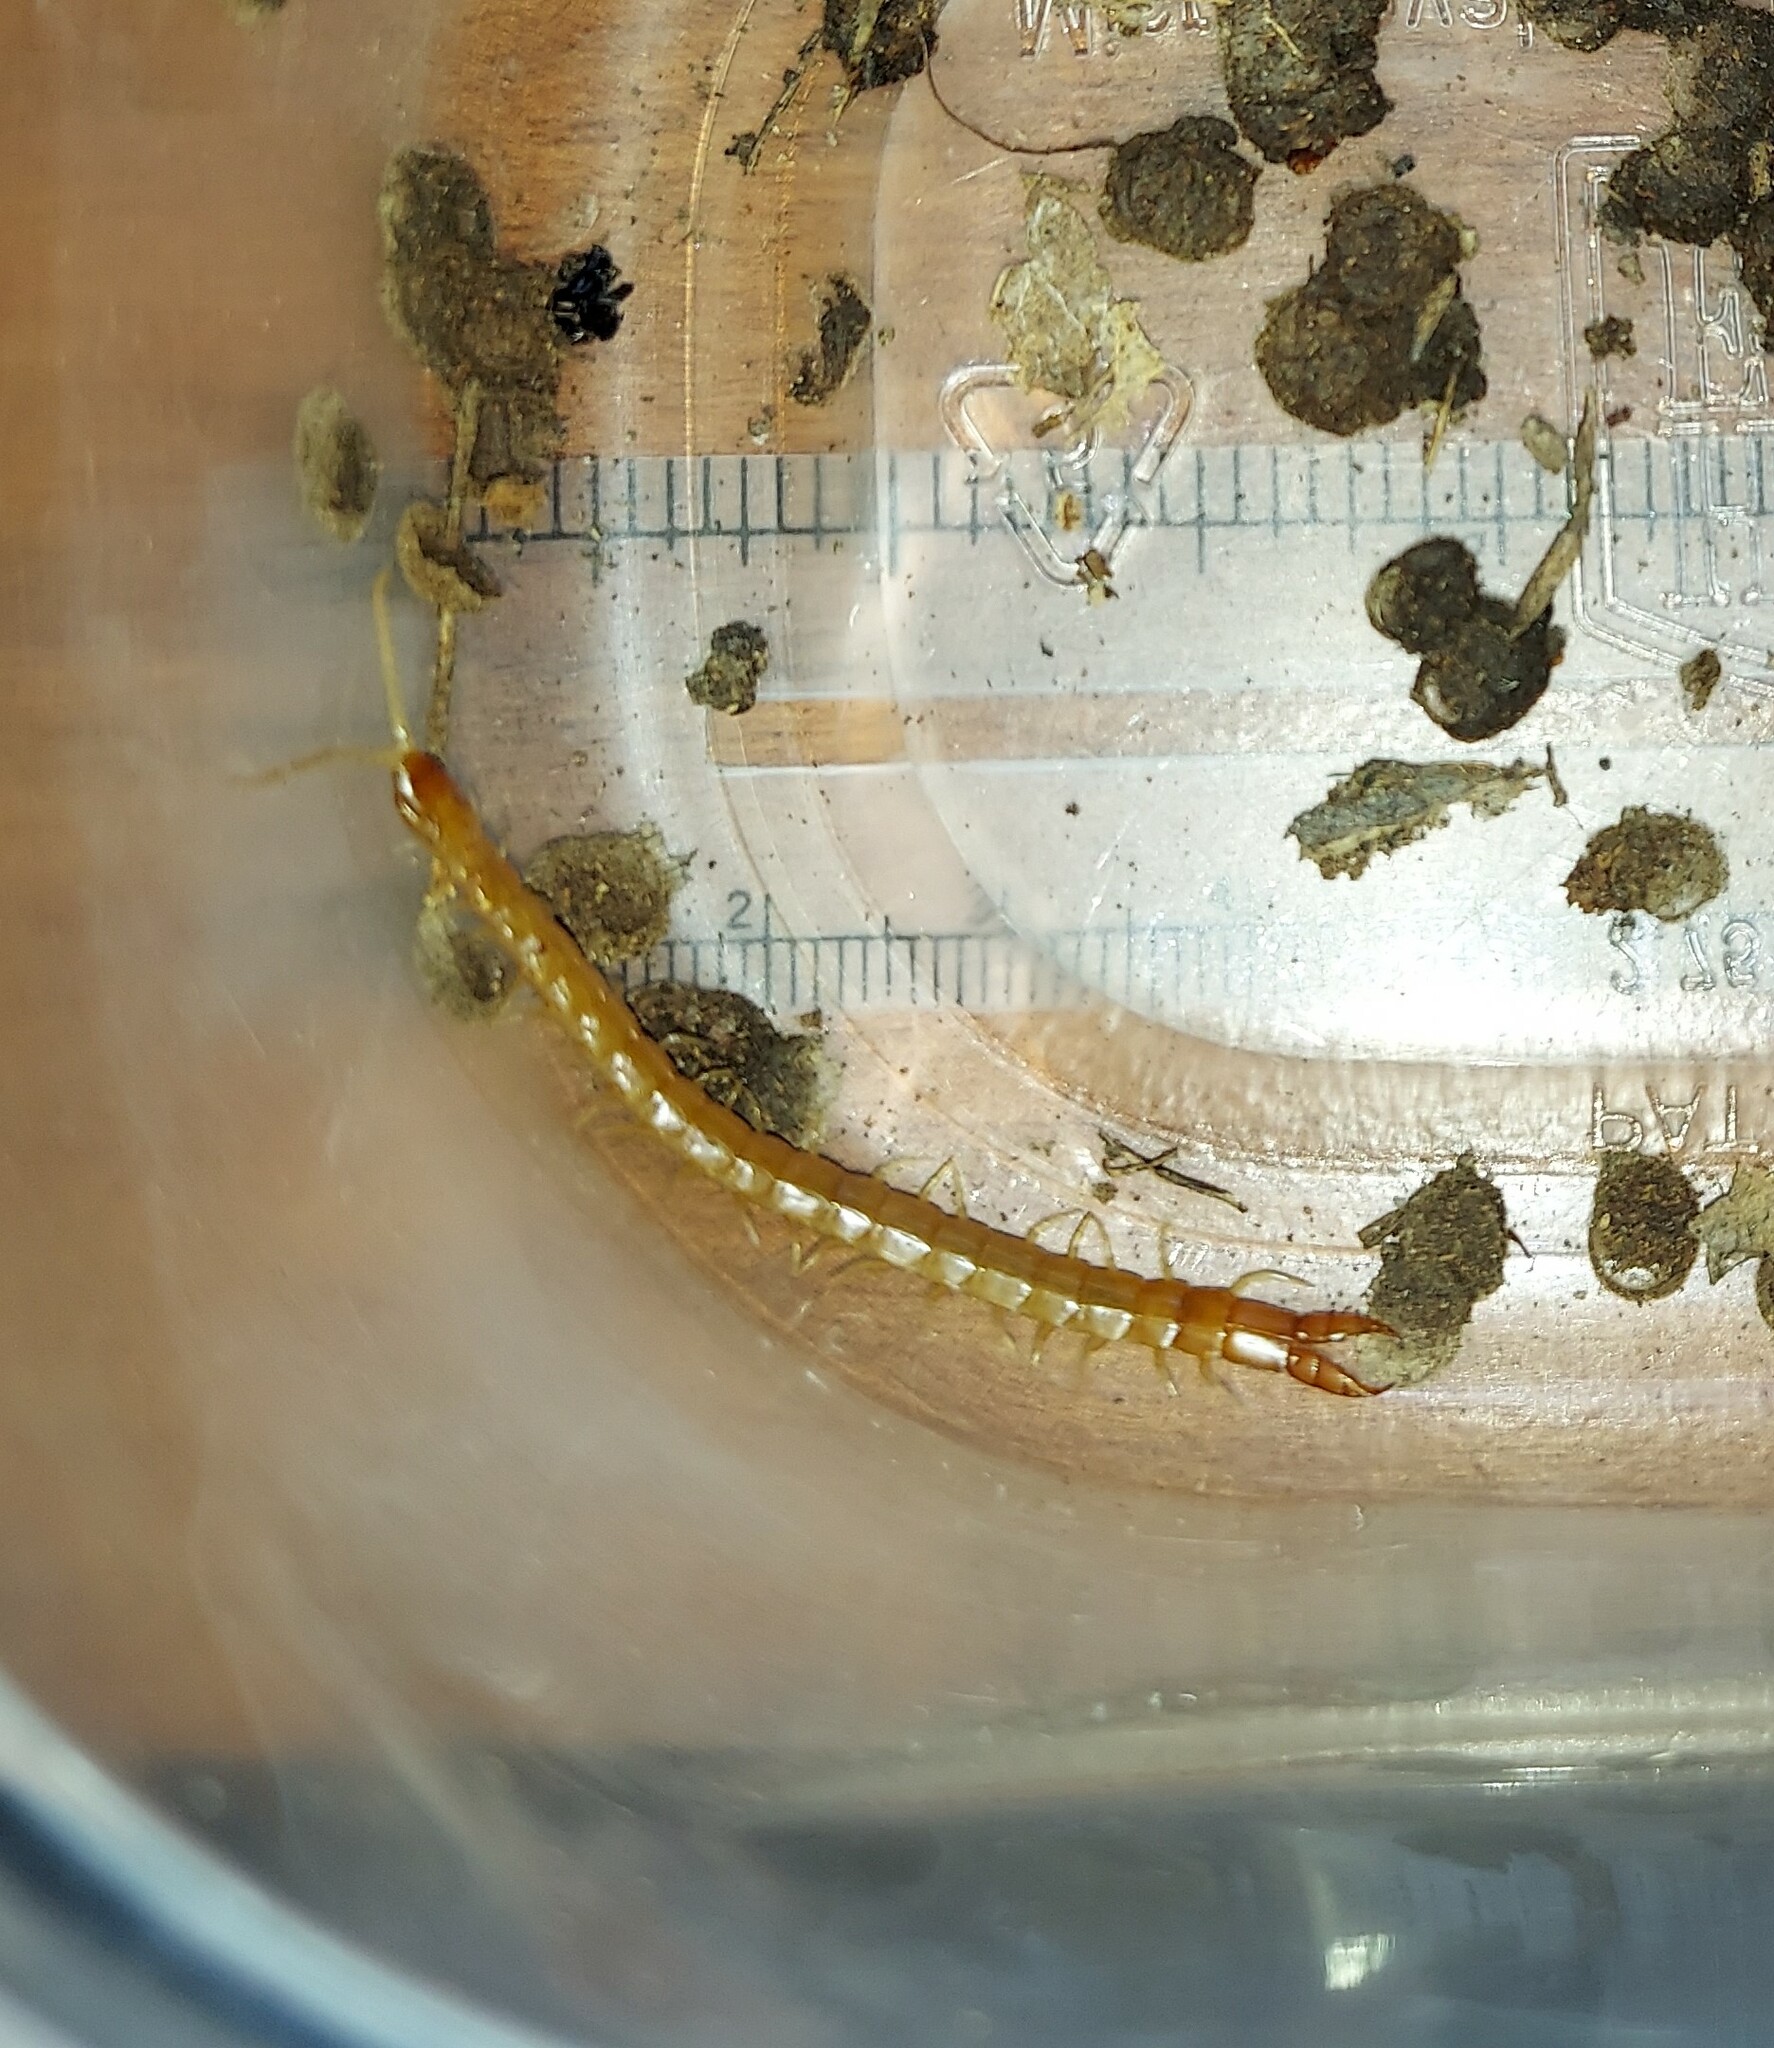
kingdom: Animalia
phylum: Arthropoda
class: Chilopoda
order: Scolopendromorpha
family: Cryptopidae
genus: Theatops
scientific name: Theatops posticus
